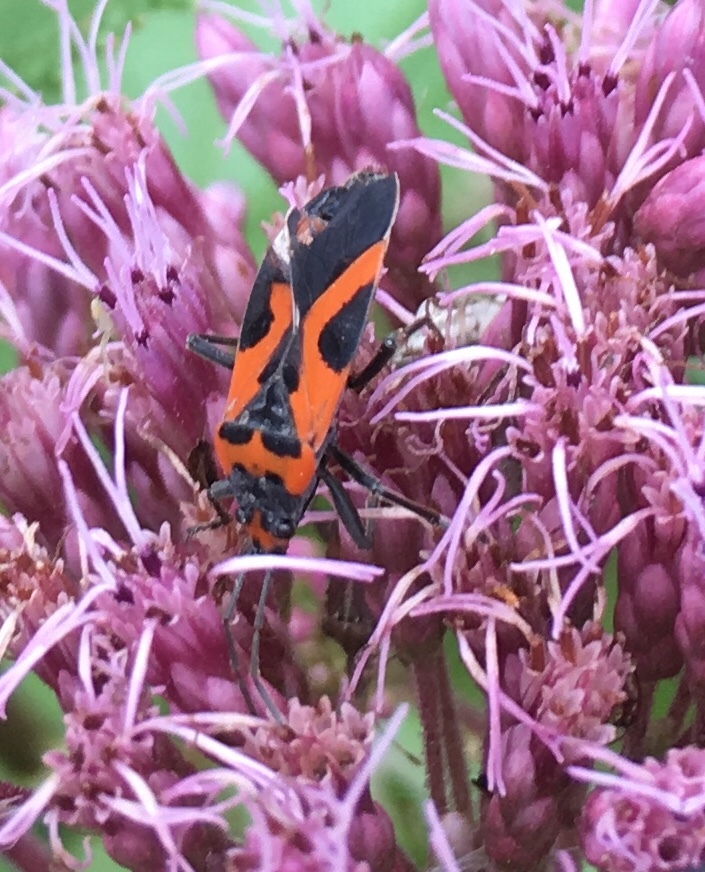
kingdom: Animalia
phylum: Arthropoda
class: Insecta
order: Hemiptera
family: Lygaeidae
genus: Lygaeus
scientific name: Lygaeus turcicus
